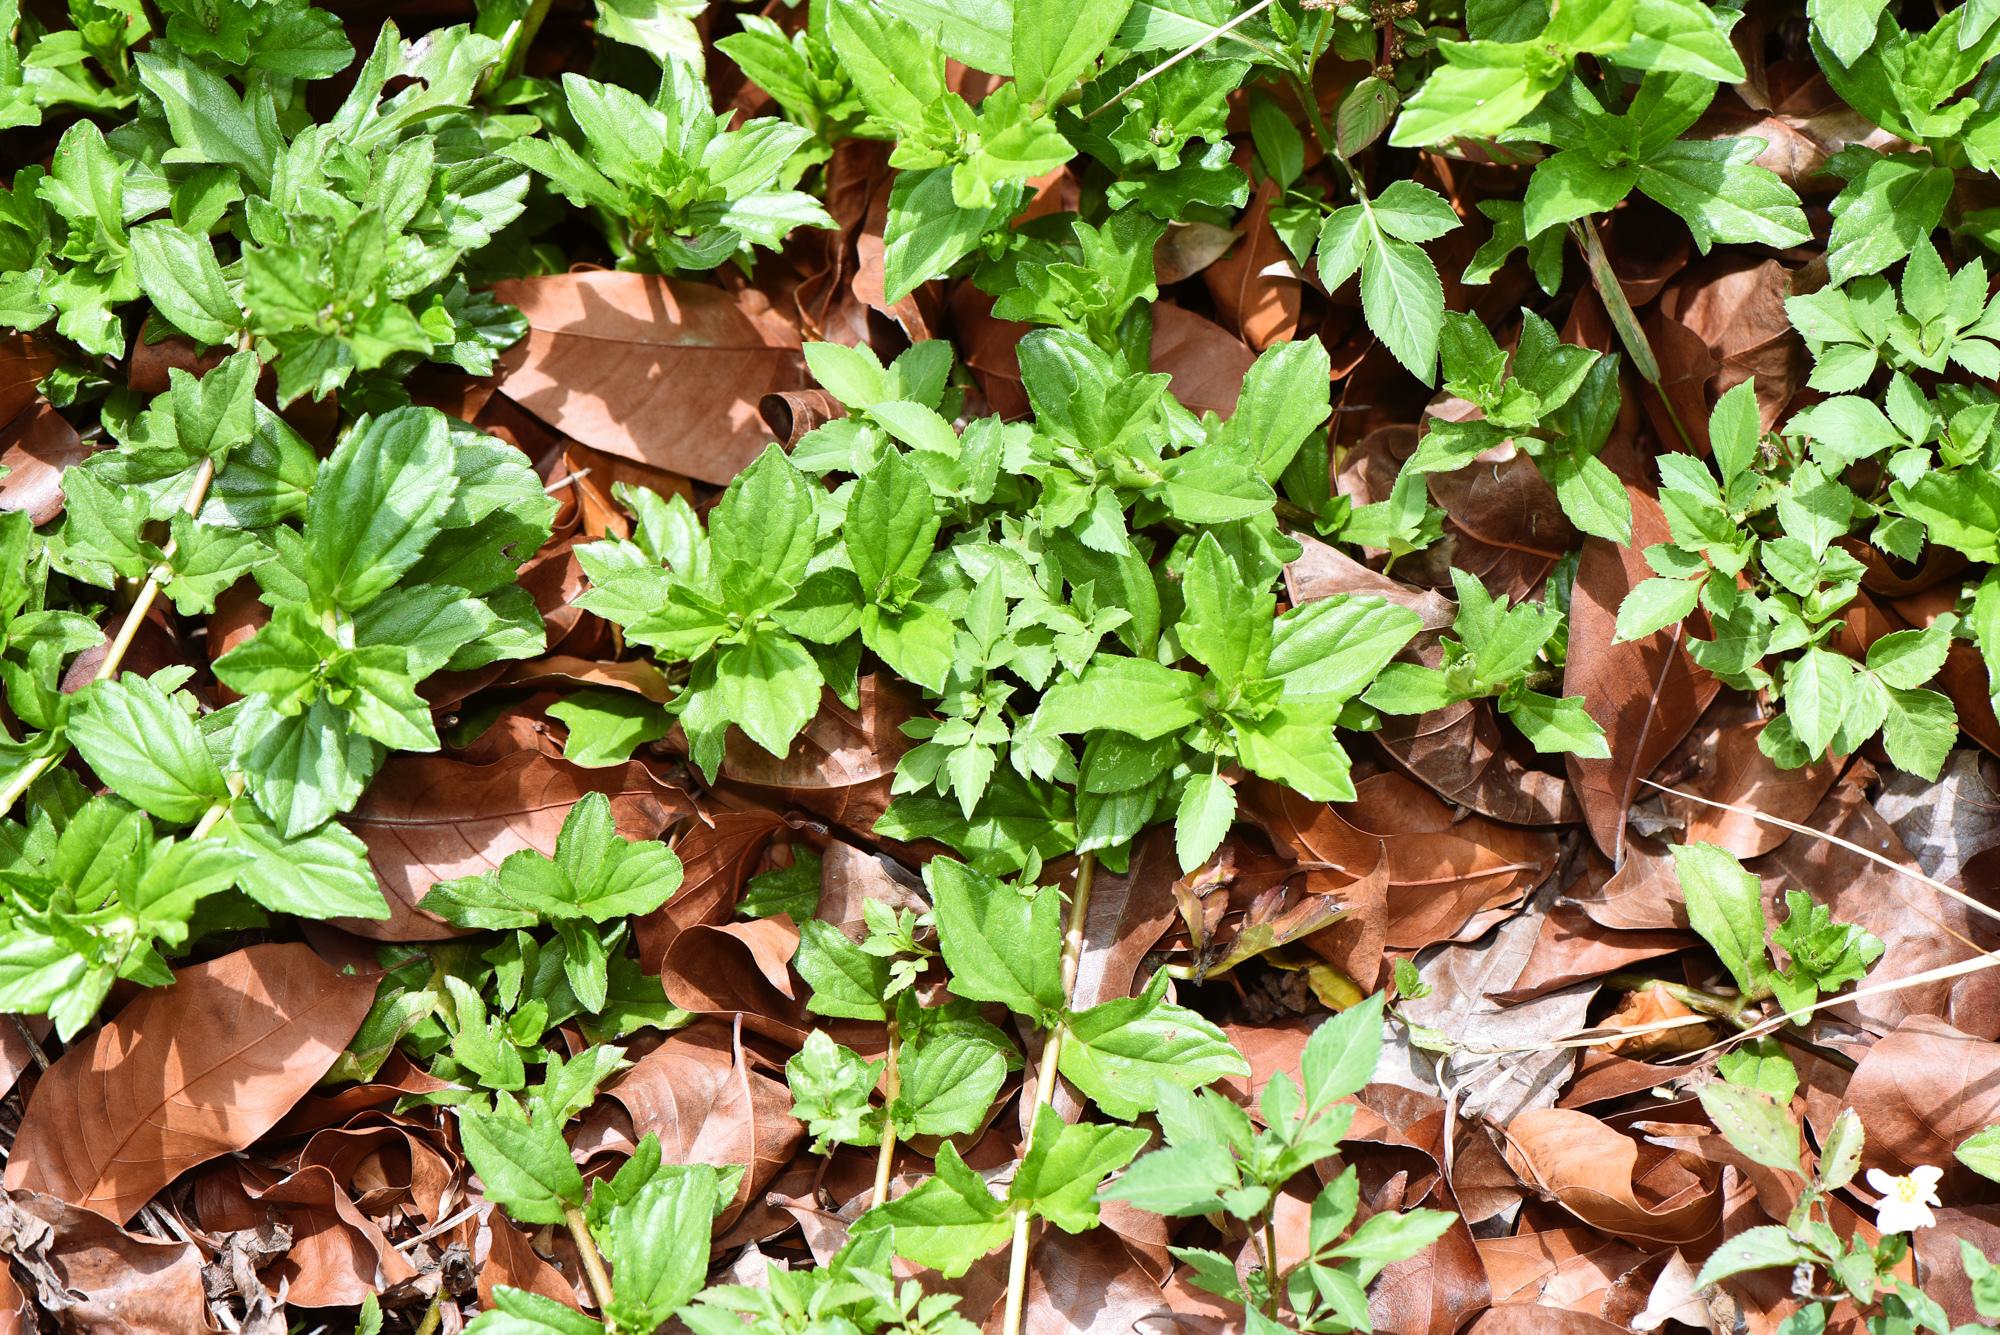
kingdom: Plantae
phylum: Tracheophyta
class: Magnoliopsida
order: Asterales
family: Asteraceae
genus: Sphagneticola
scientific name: Sphagneticola trilobata
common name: Bay biscayne creeping-oxeye
